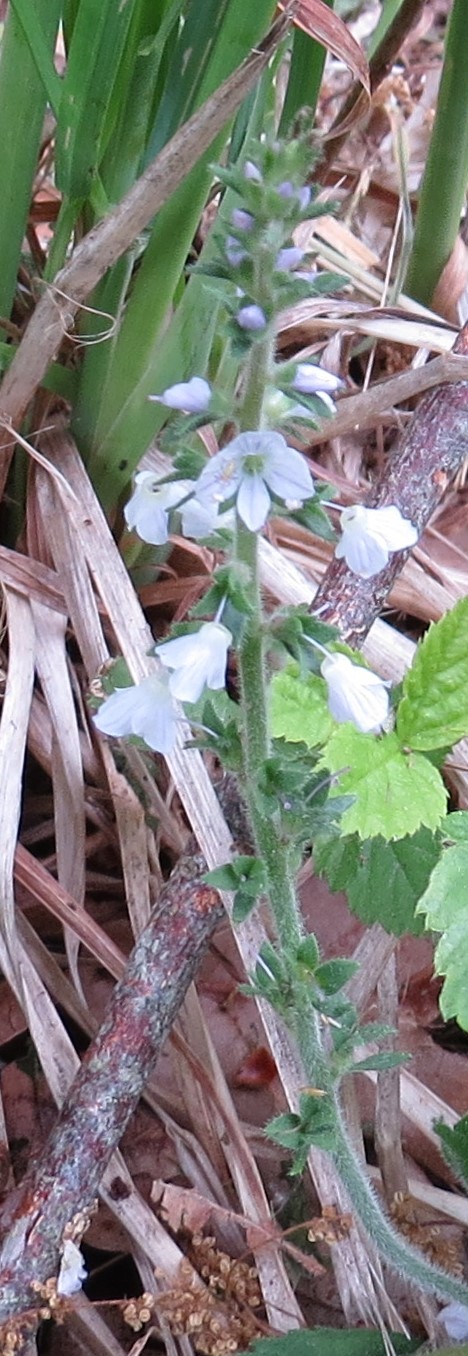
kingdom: Plantae
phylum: Tracheophyta
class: Magnoliopsida
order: Lamiales
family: Plantaginaceae
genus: Veronica
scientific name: Veronica officinalis
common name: Common speedwell
